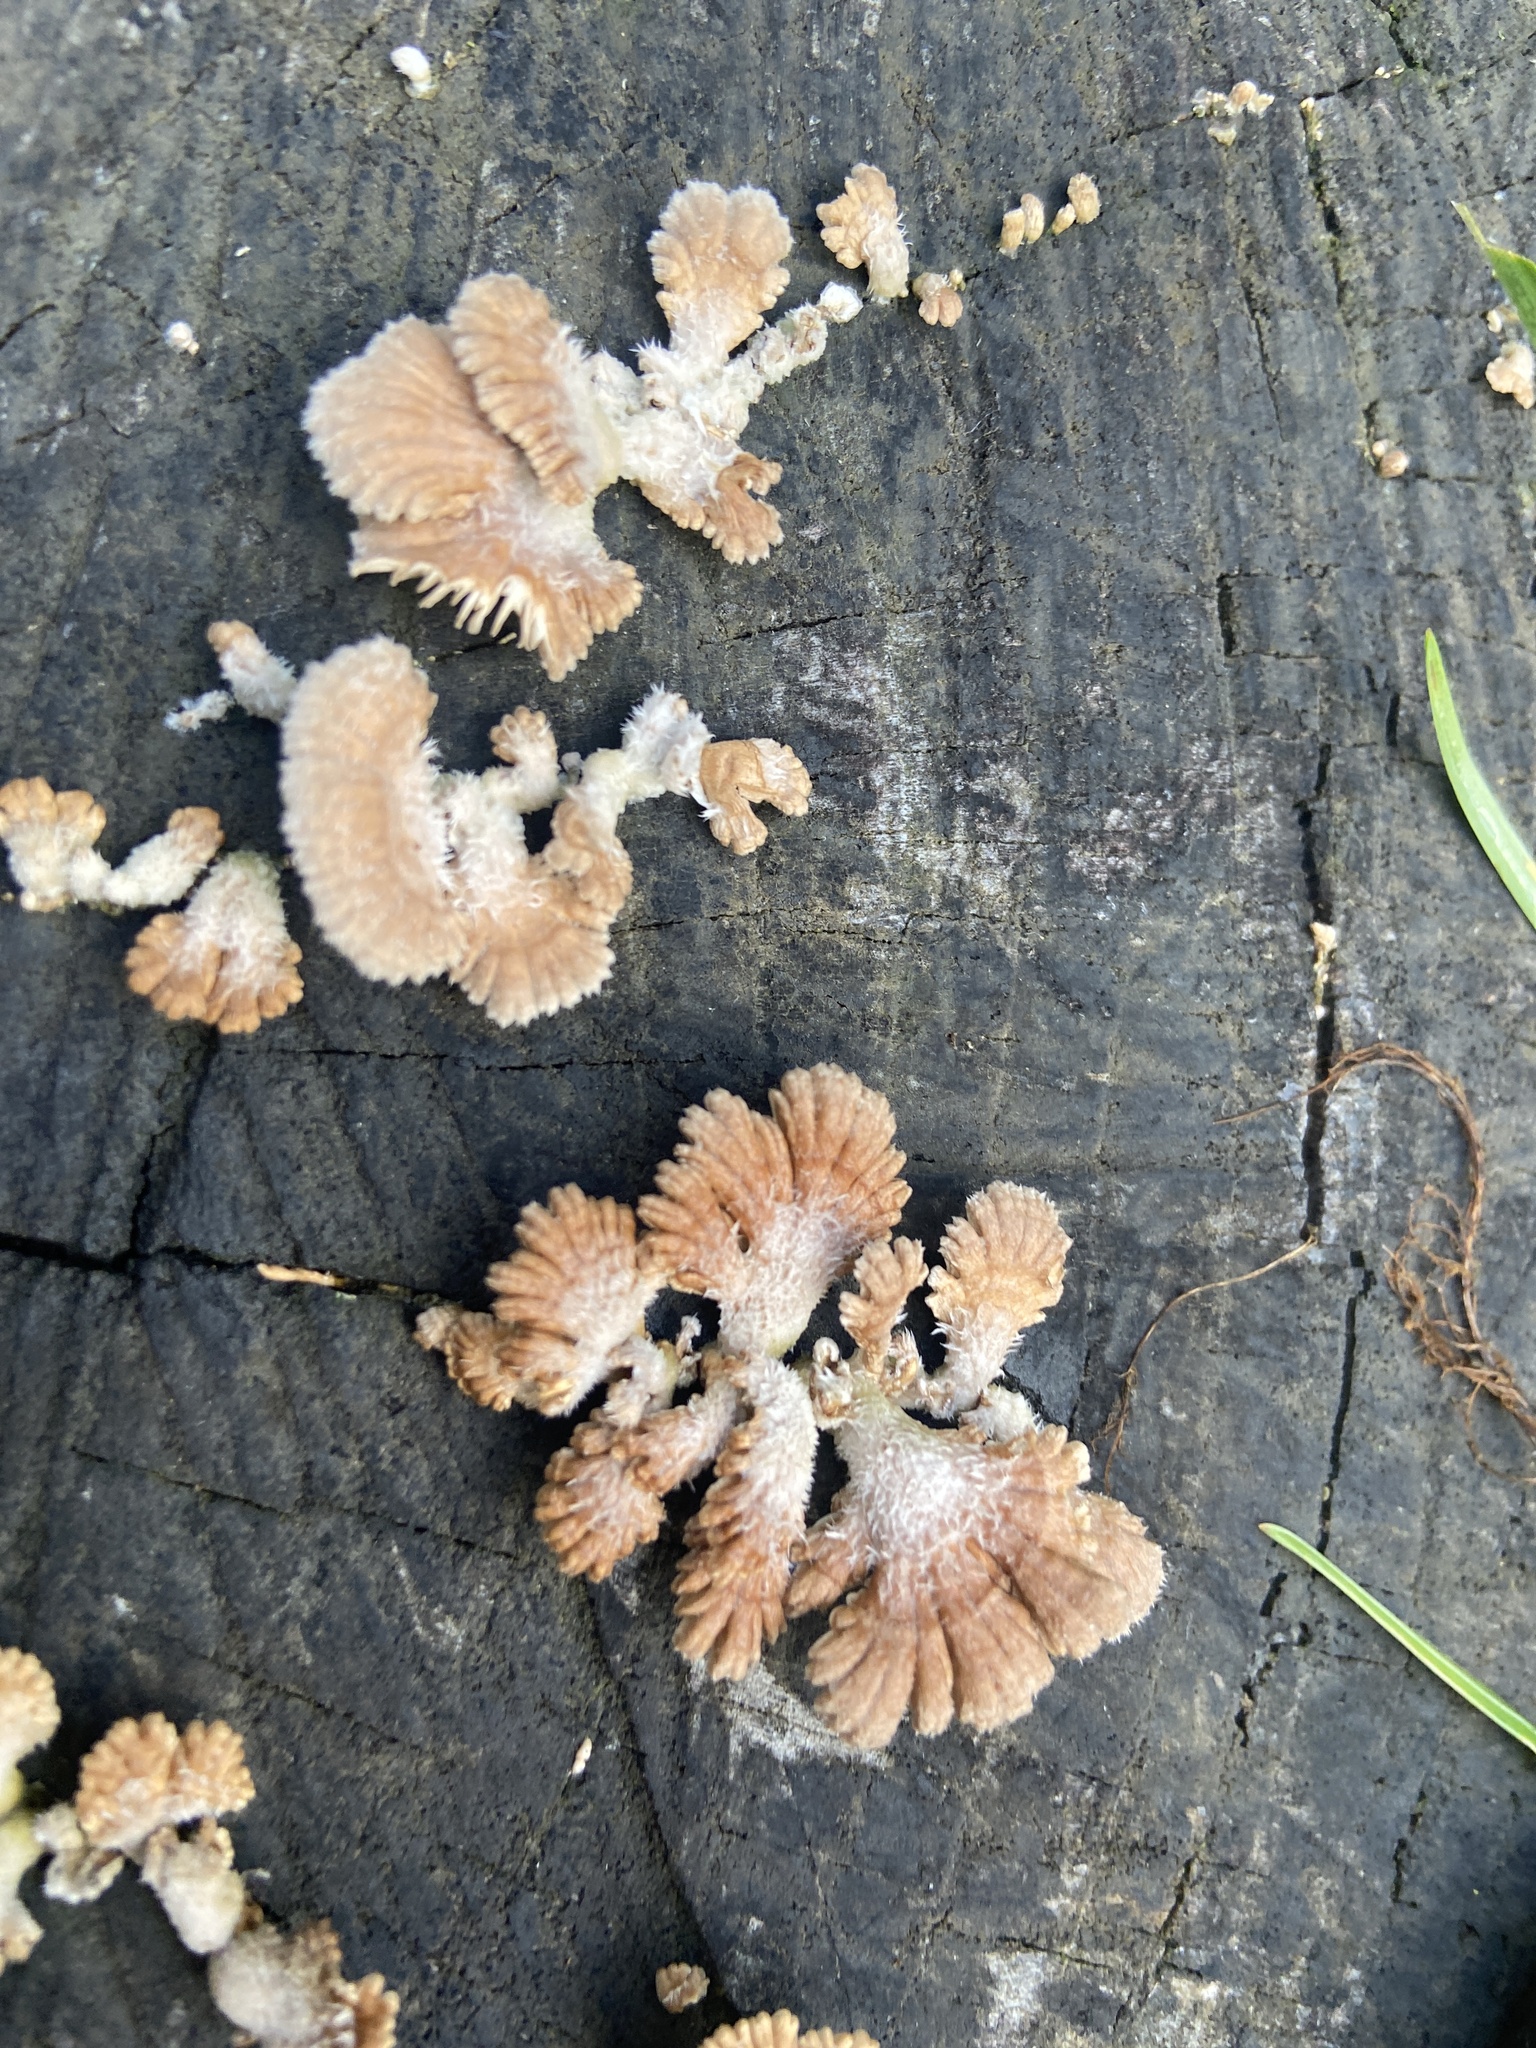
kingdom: Fungi
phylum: Basidiomycota
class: Agaricomycetes
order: Agaricales
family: Schizophyllaceae
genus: Schizophyllum
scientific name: Schizophyllum commune
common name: Common porecrust
